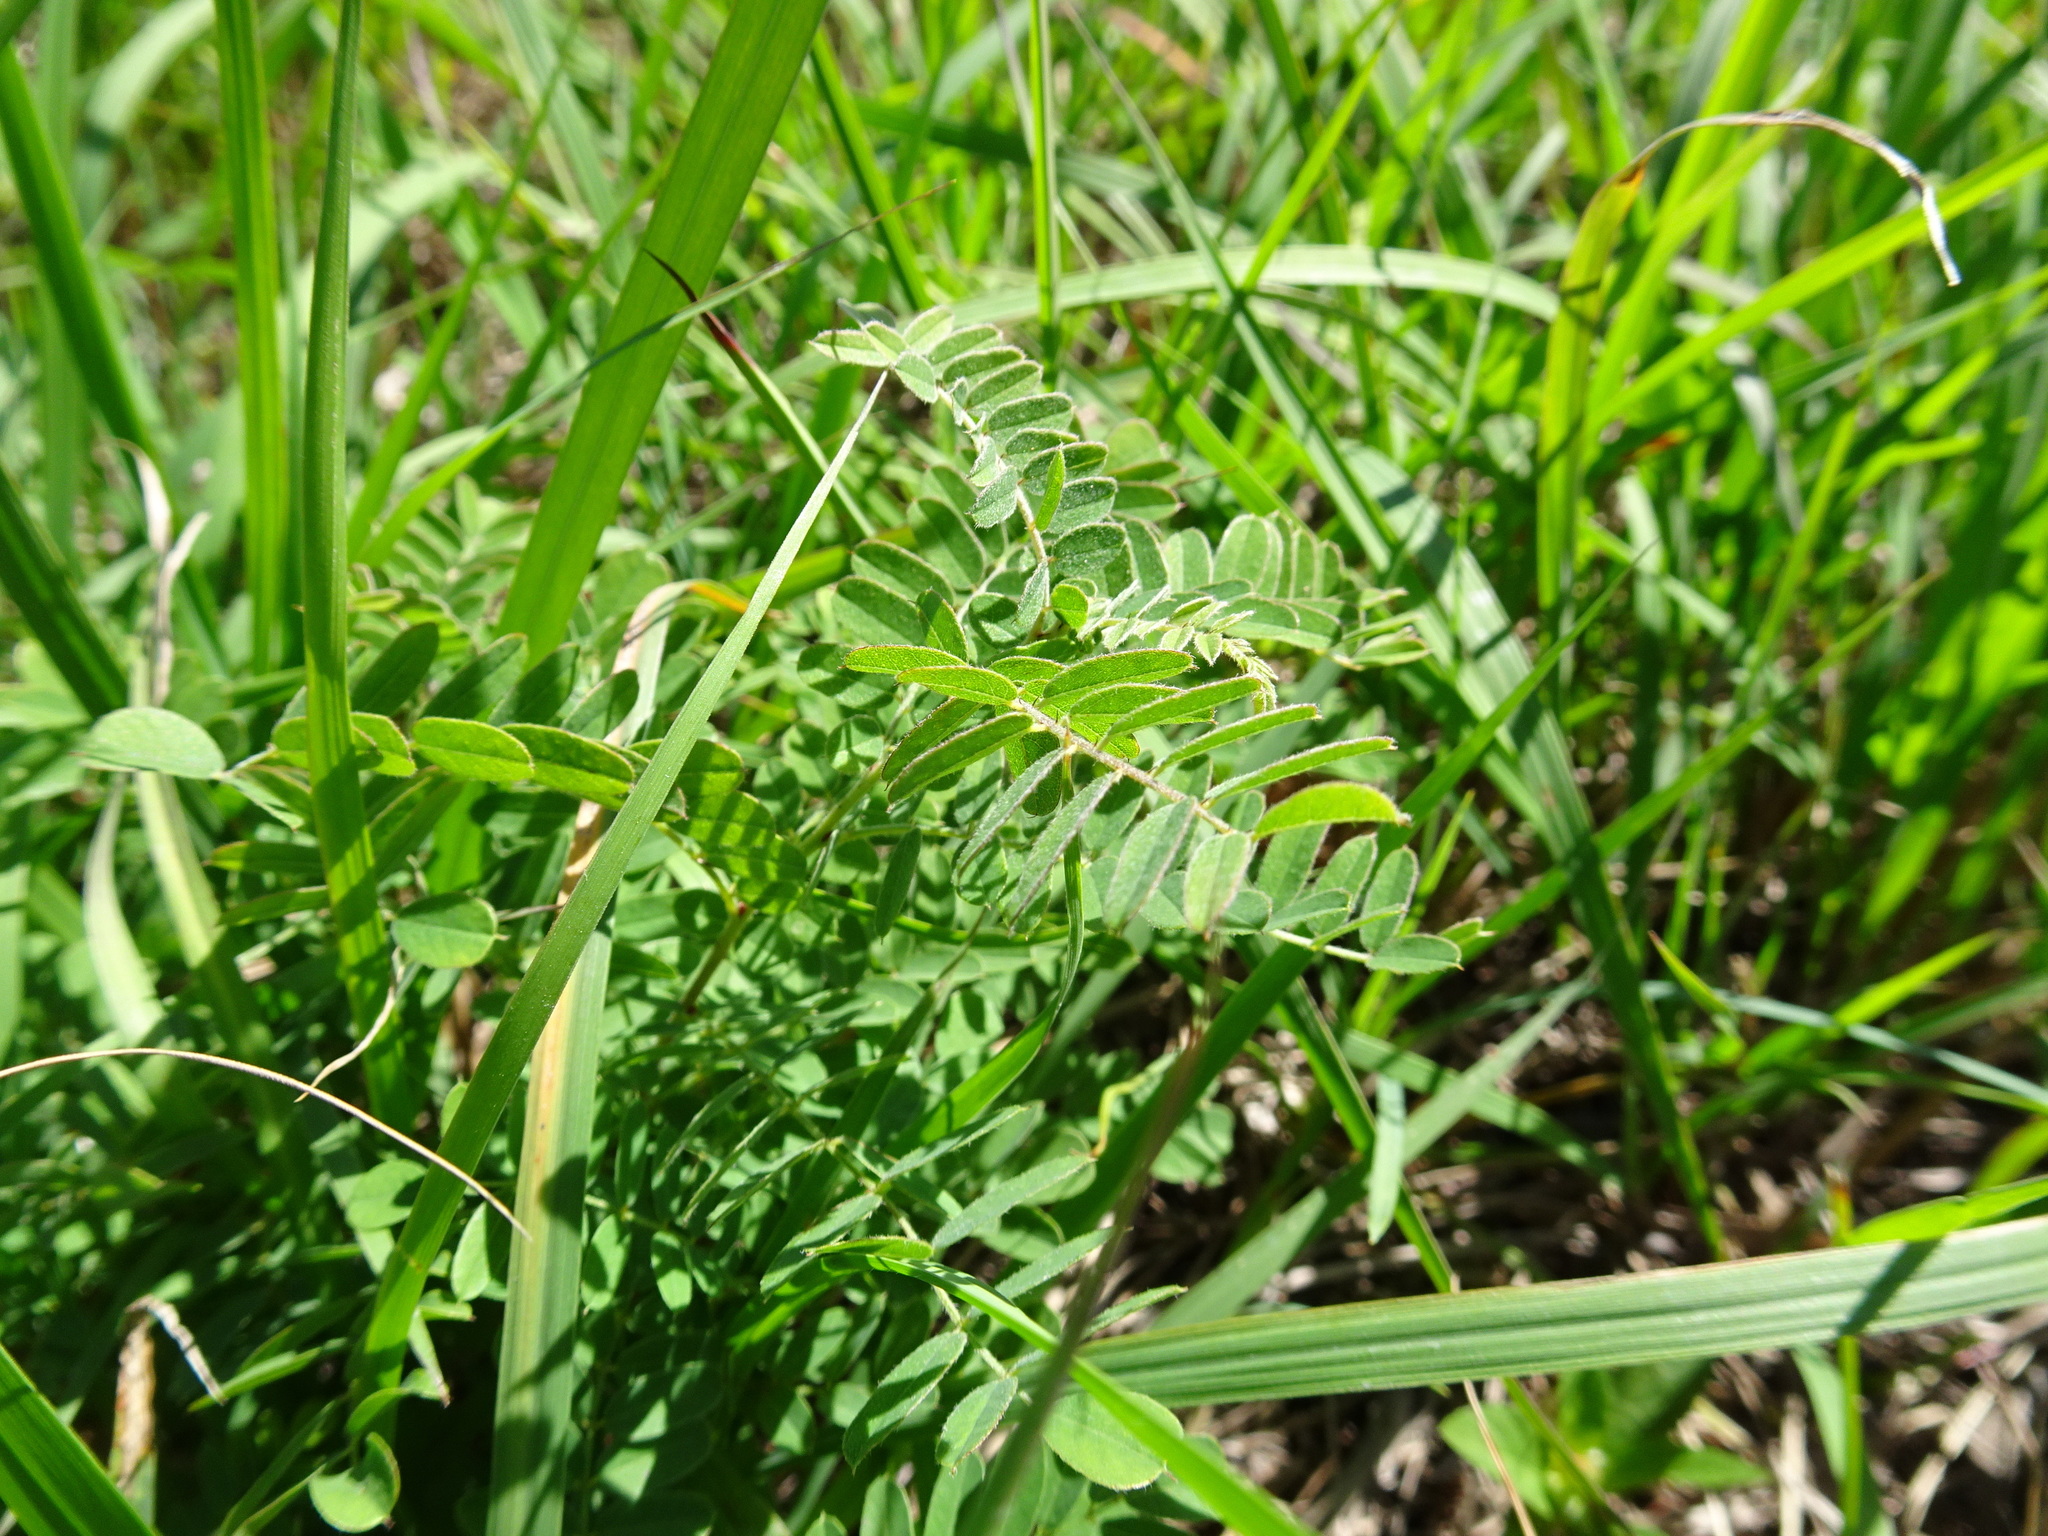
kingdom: Plantae
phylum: Tracheophyta
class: Magnoliopsida
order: Fabales
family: Fabaceae
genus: Amorpha
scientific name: Amorpha canescens
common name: Leadplant
